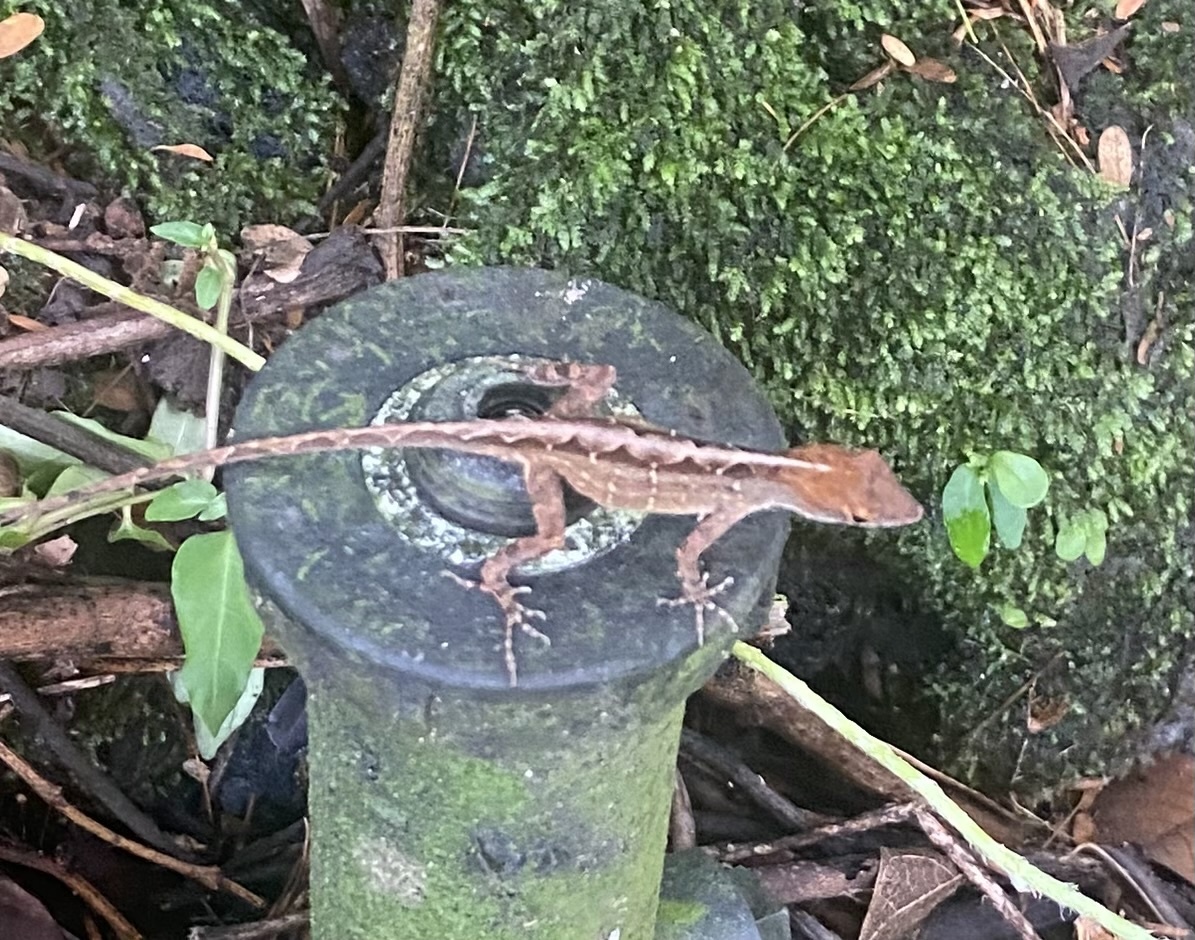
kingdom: Animalia
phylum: Chordata
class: Squamata
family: Dactyloidae
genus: Anolis
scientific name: Anolis sagrei
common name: Brown anole
